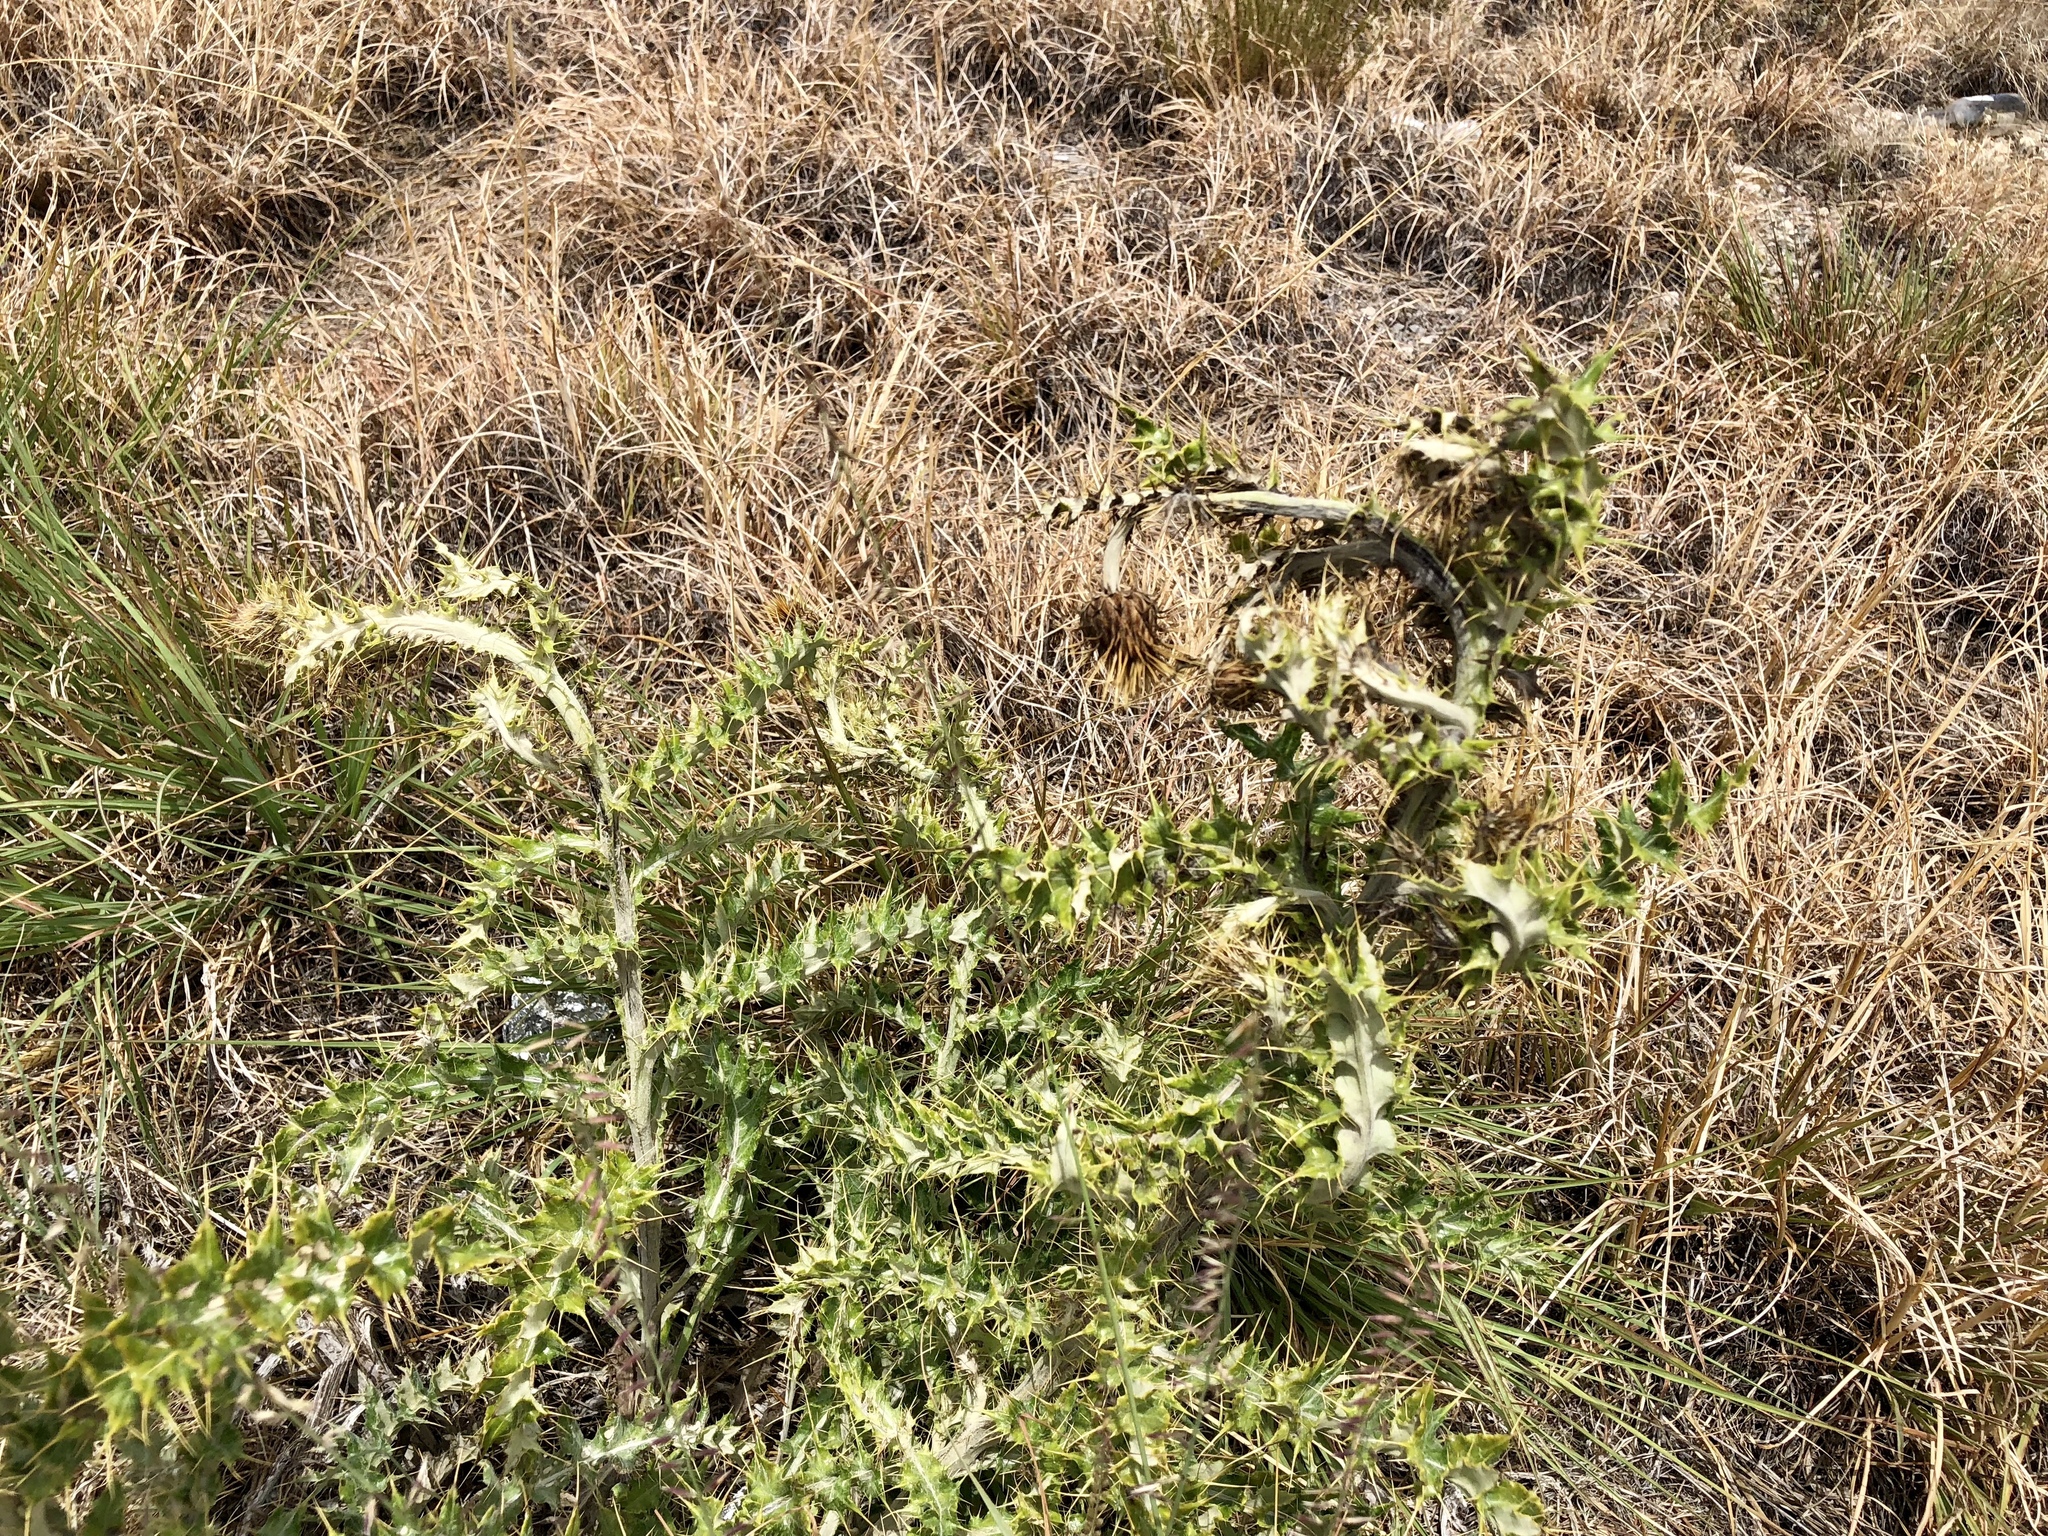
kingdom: Plantae
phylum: Tracheophyta
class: Magnoliopsida
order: Asterales
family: Asteraceae
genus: Cirsium
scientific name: Cirsium ochrocentrum
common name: Yellow-spine thistle
